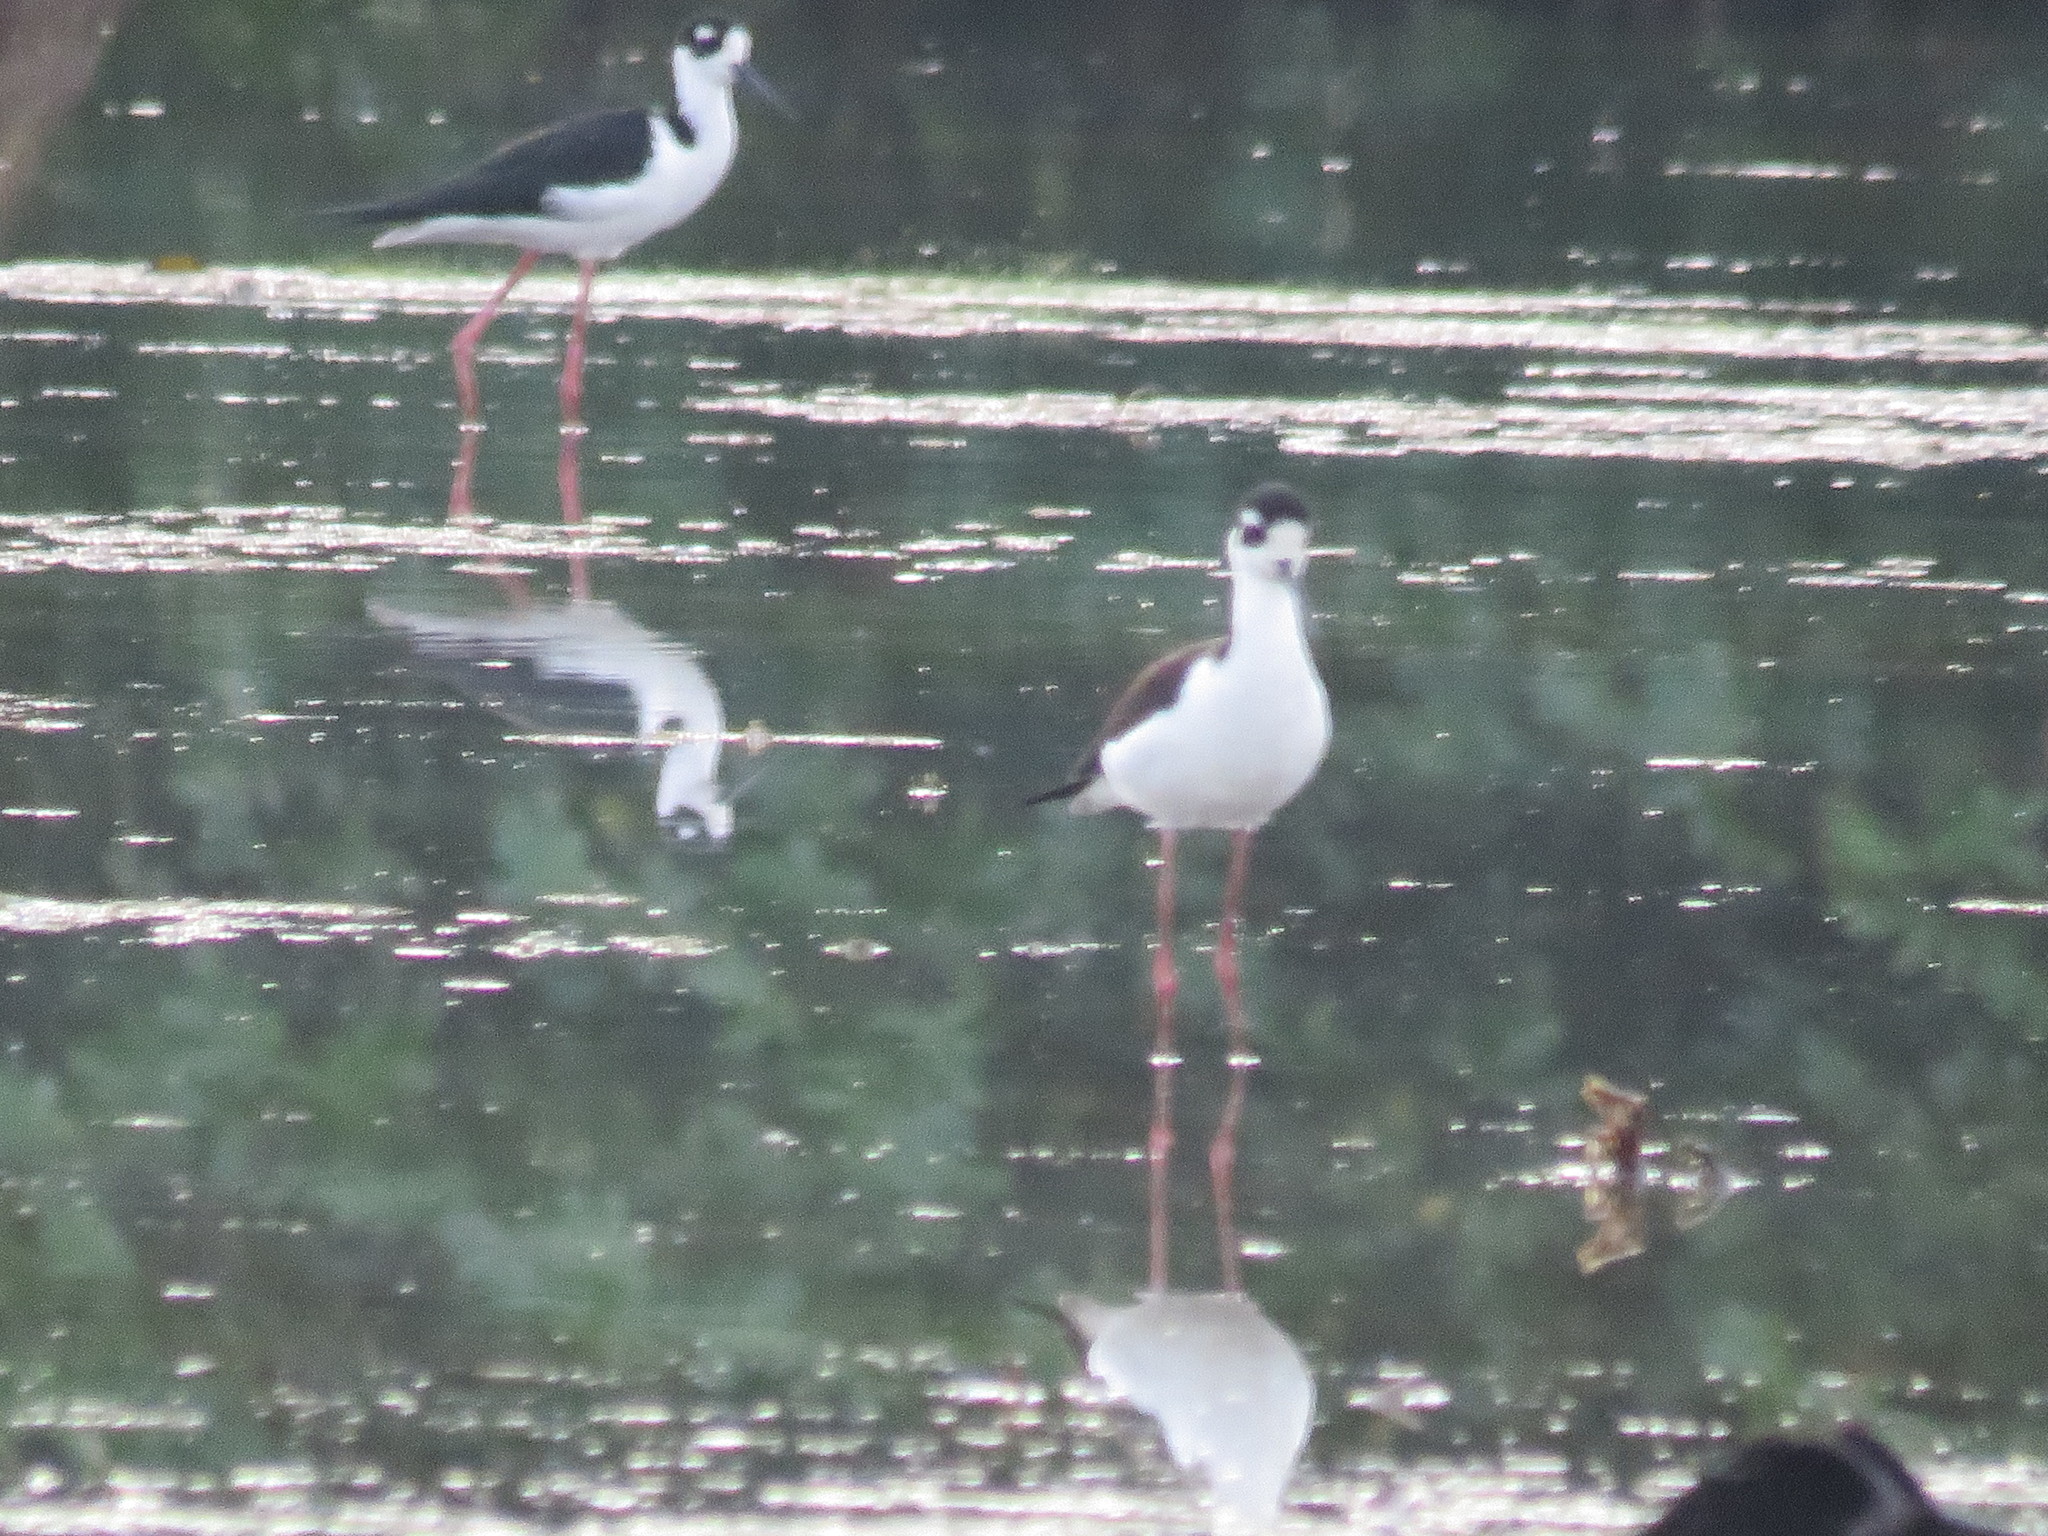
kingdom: Animalia
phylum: Chordata
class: Aves
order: Charadriiformes
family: Recurvirostridae
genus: Himantopus
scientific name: Himantopus mexicanus
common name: Black-necked stilt
